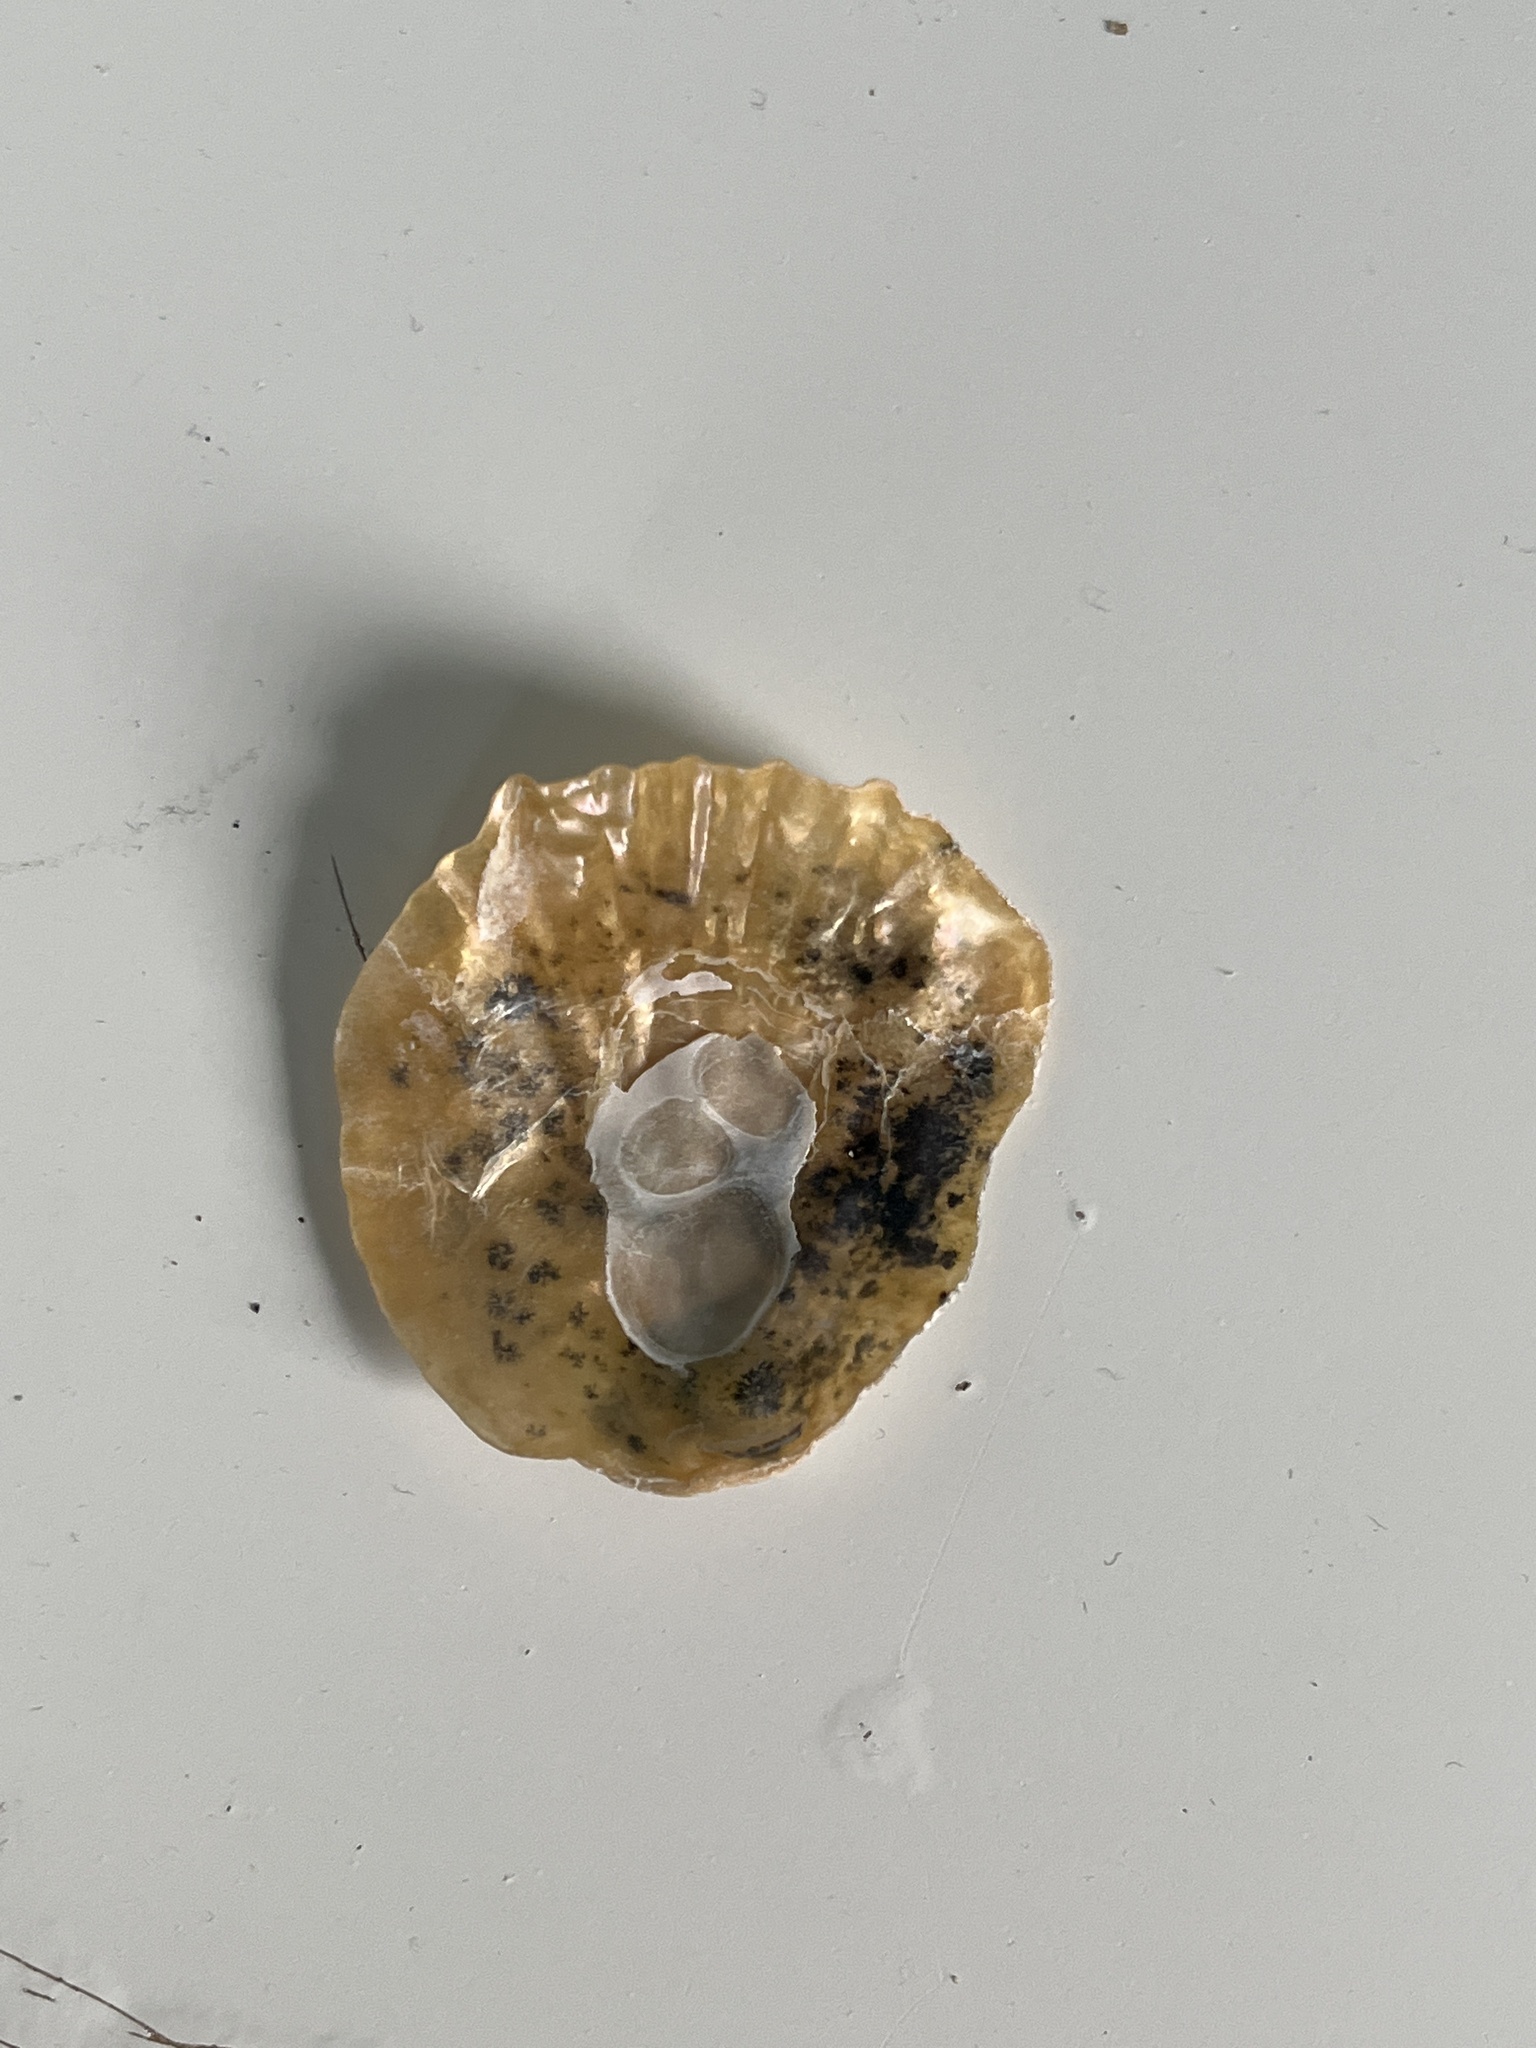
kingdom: Animalia
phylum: Mollusca
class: Bivalvia
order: Pectinida
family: Anomiidae
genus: Anomia
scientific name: Anomia ephippium
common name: Saddle oyster
